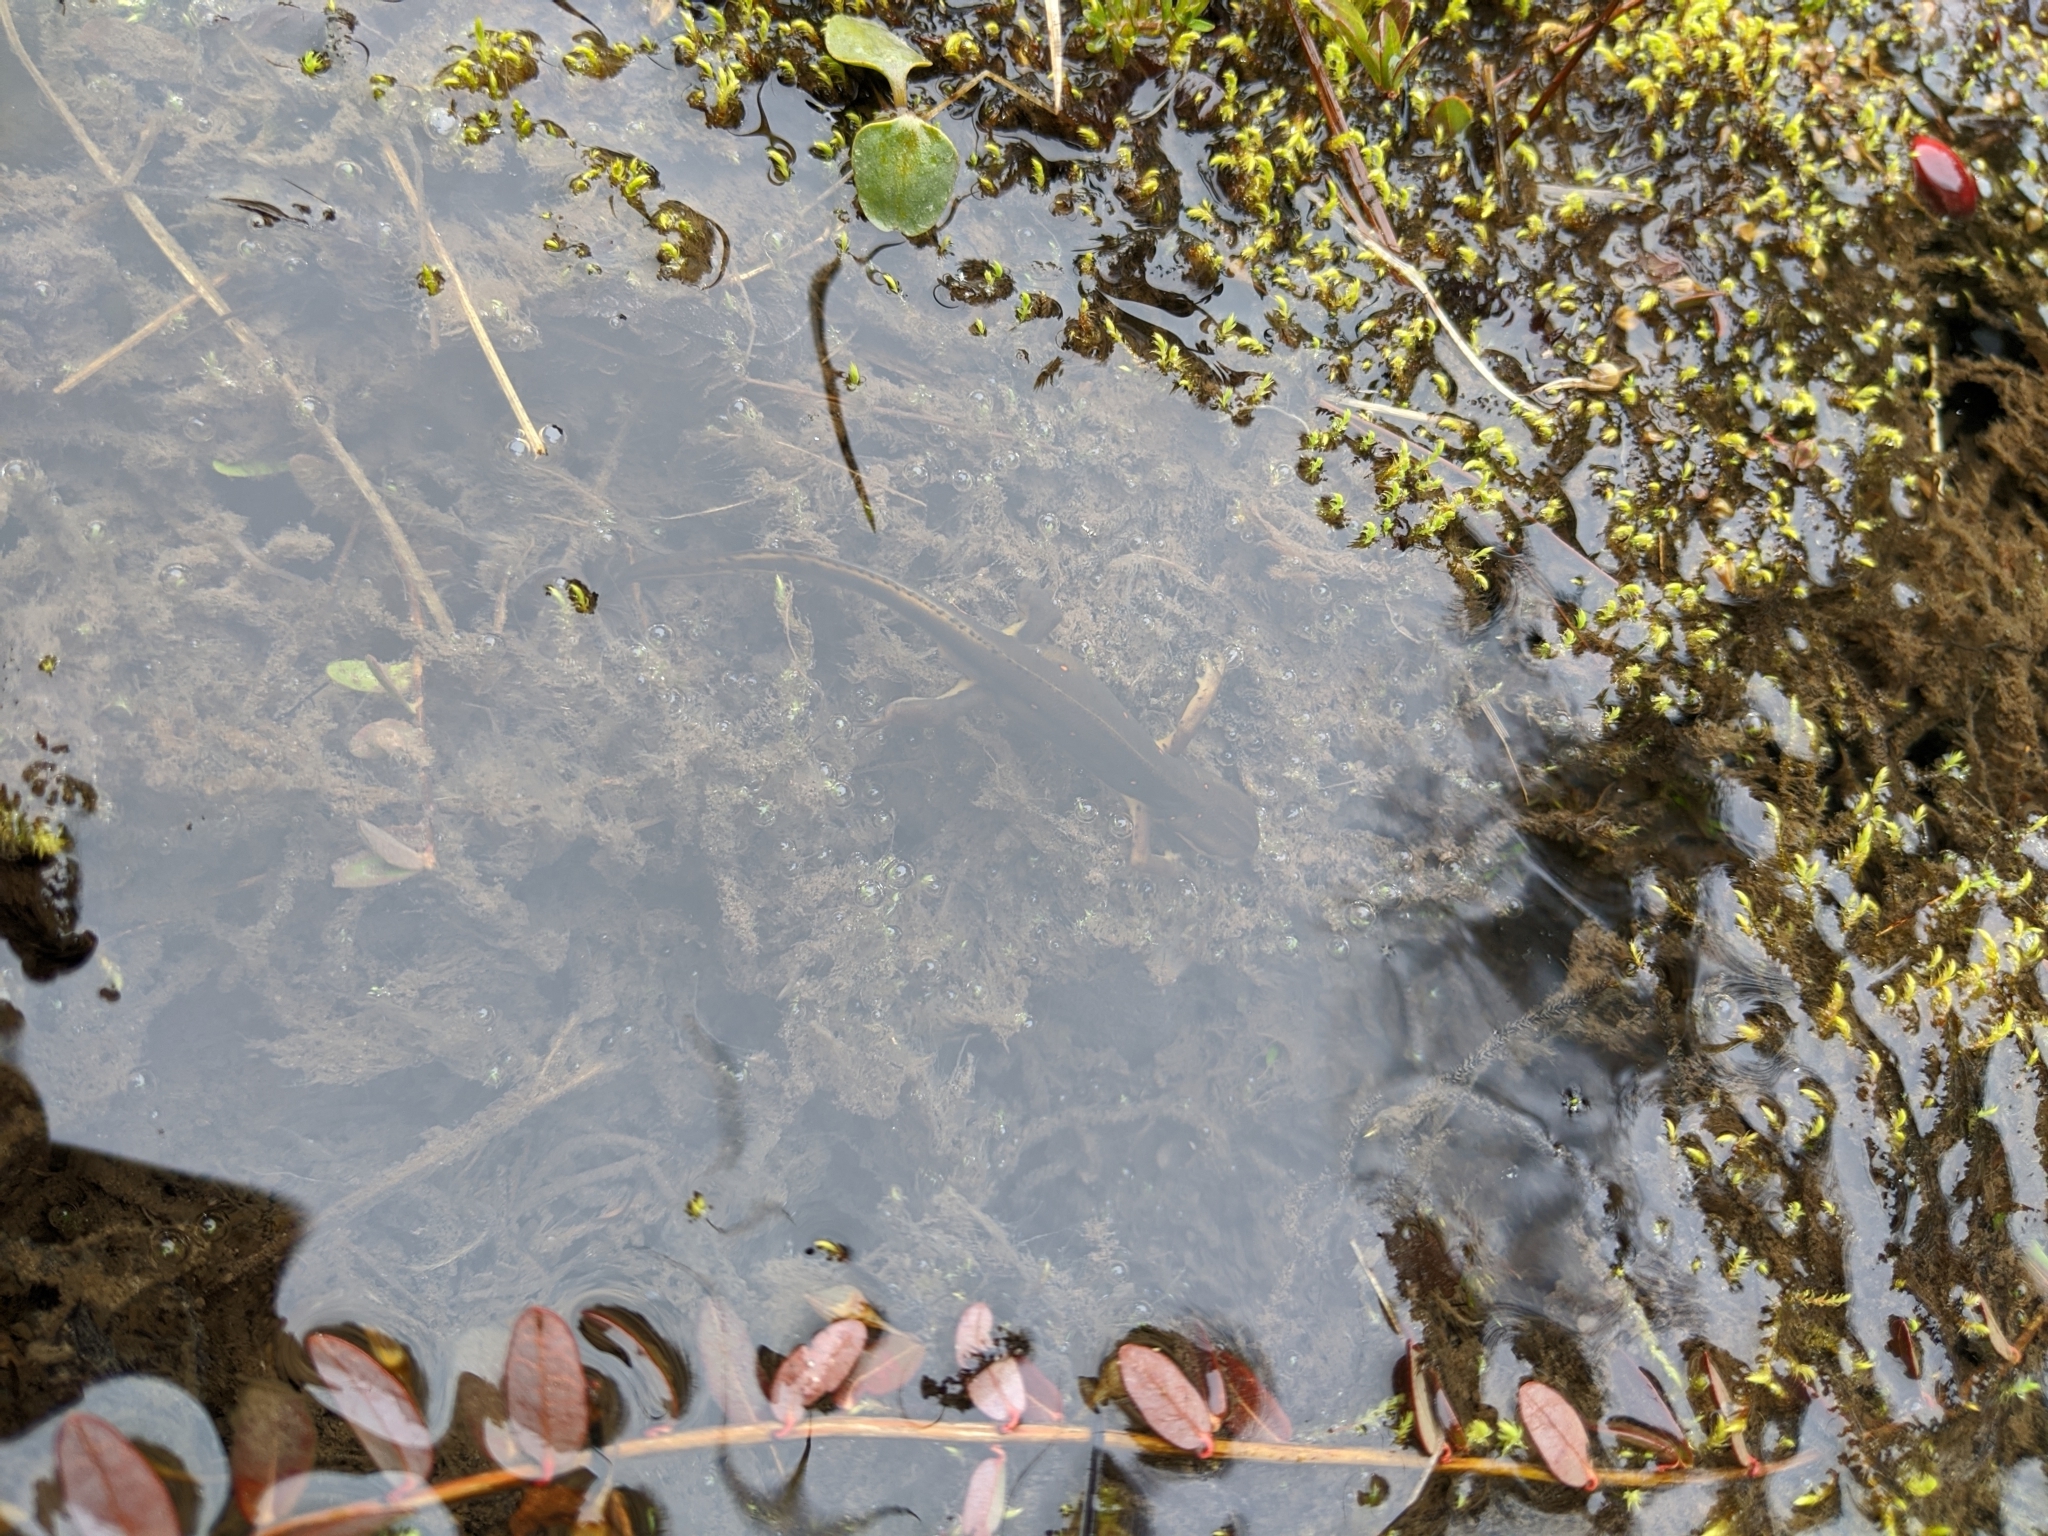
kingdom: Animalia
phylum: Chordata
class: Amphibia
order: Caudata
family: Salamandridae
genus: Notophthalmus
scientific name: Notophthalmus viridescens
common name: Eastern newt
